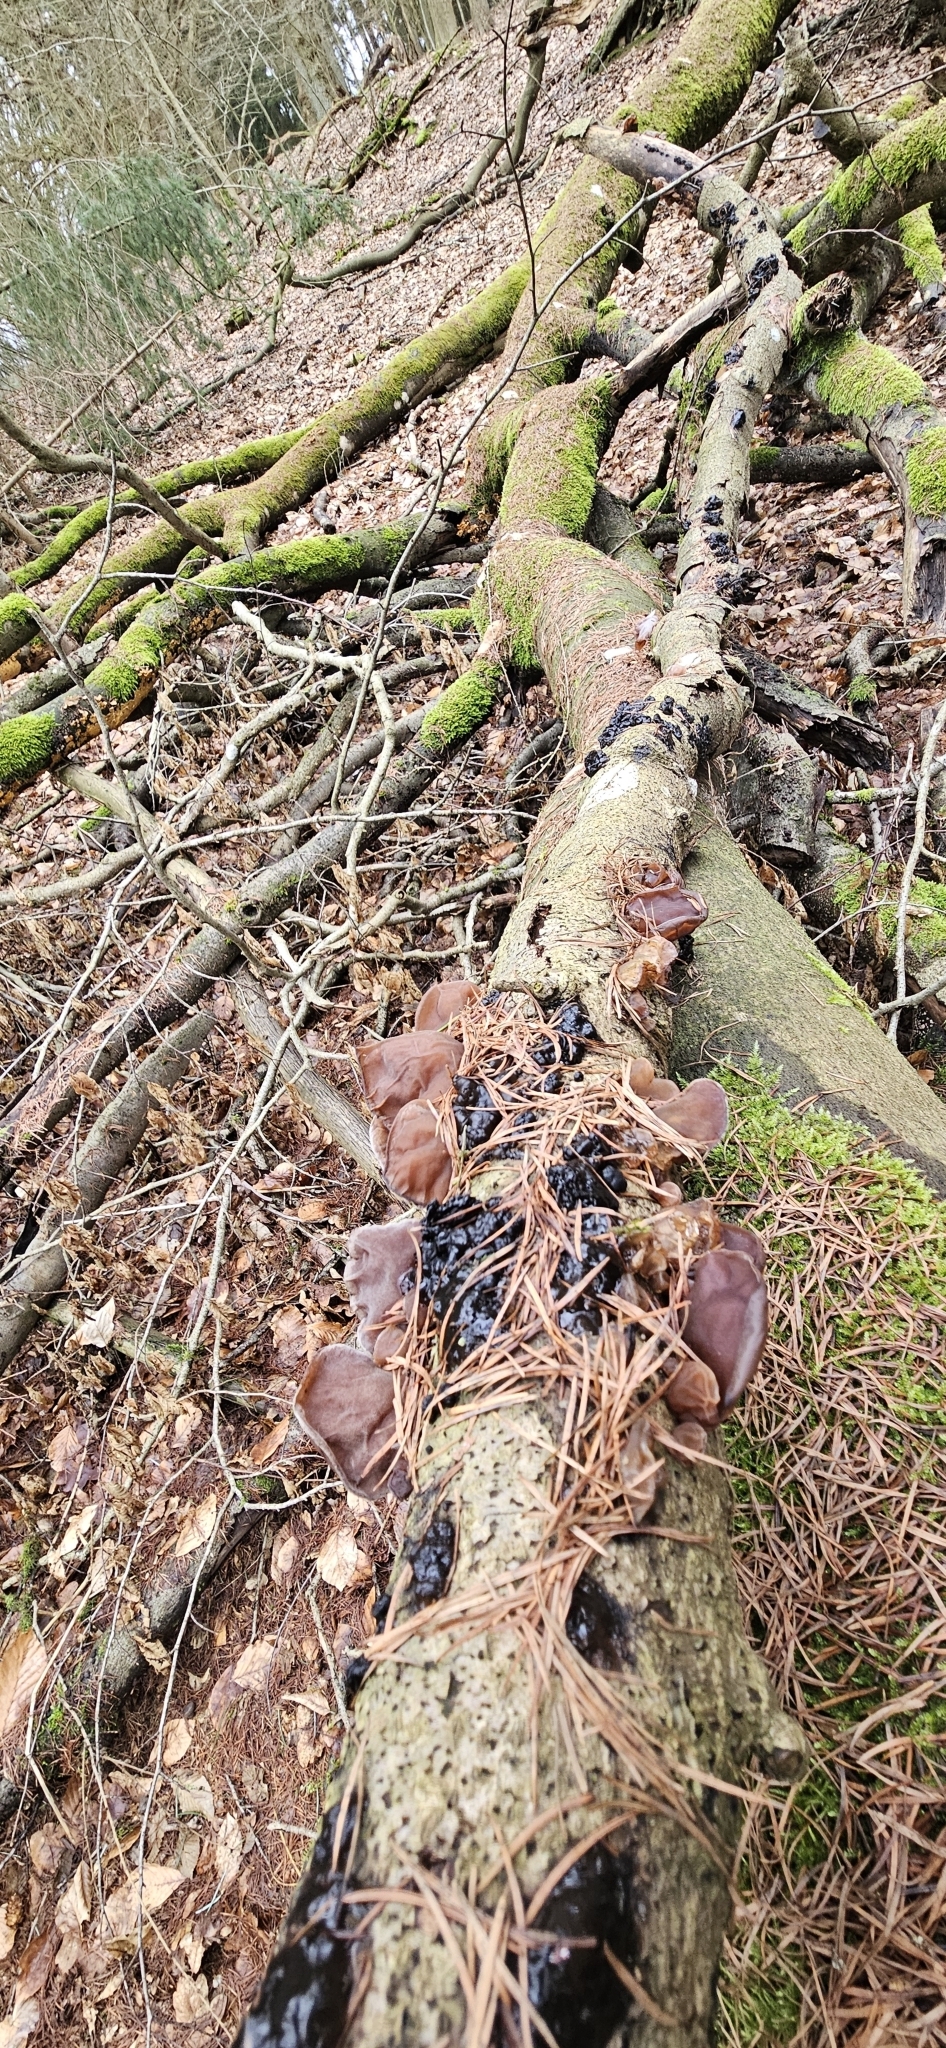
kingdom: Fungi
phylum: Basidiomycota
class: Agaricomycetes
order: Auriculariales
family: Auriculariaceae
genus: Exidia
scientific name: Exidia nigricans
